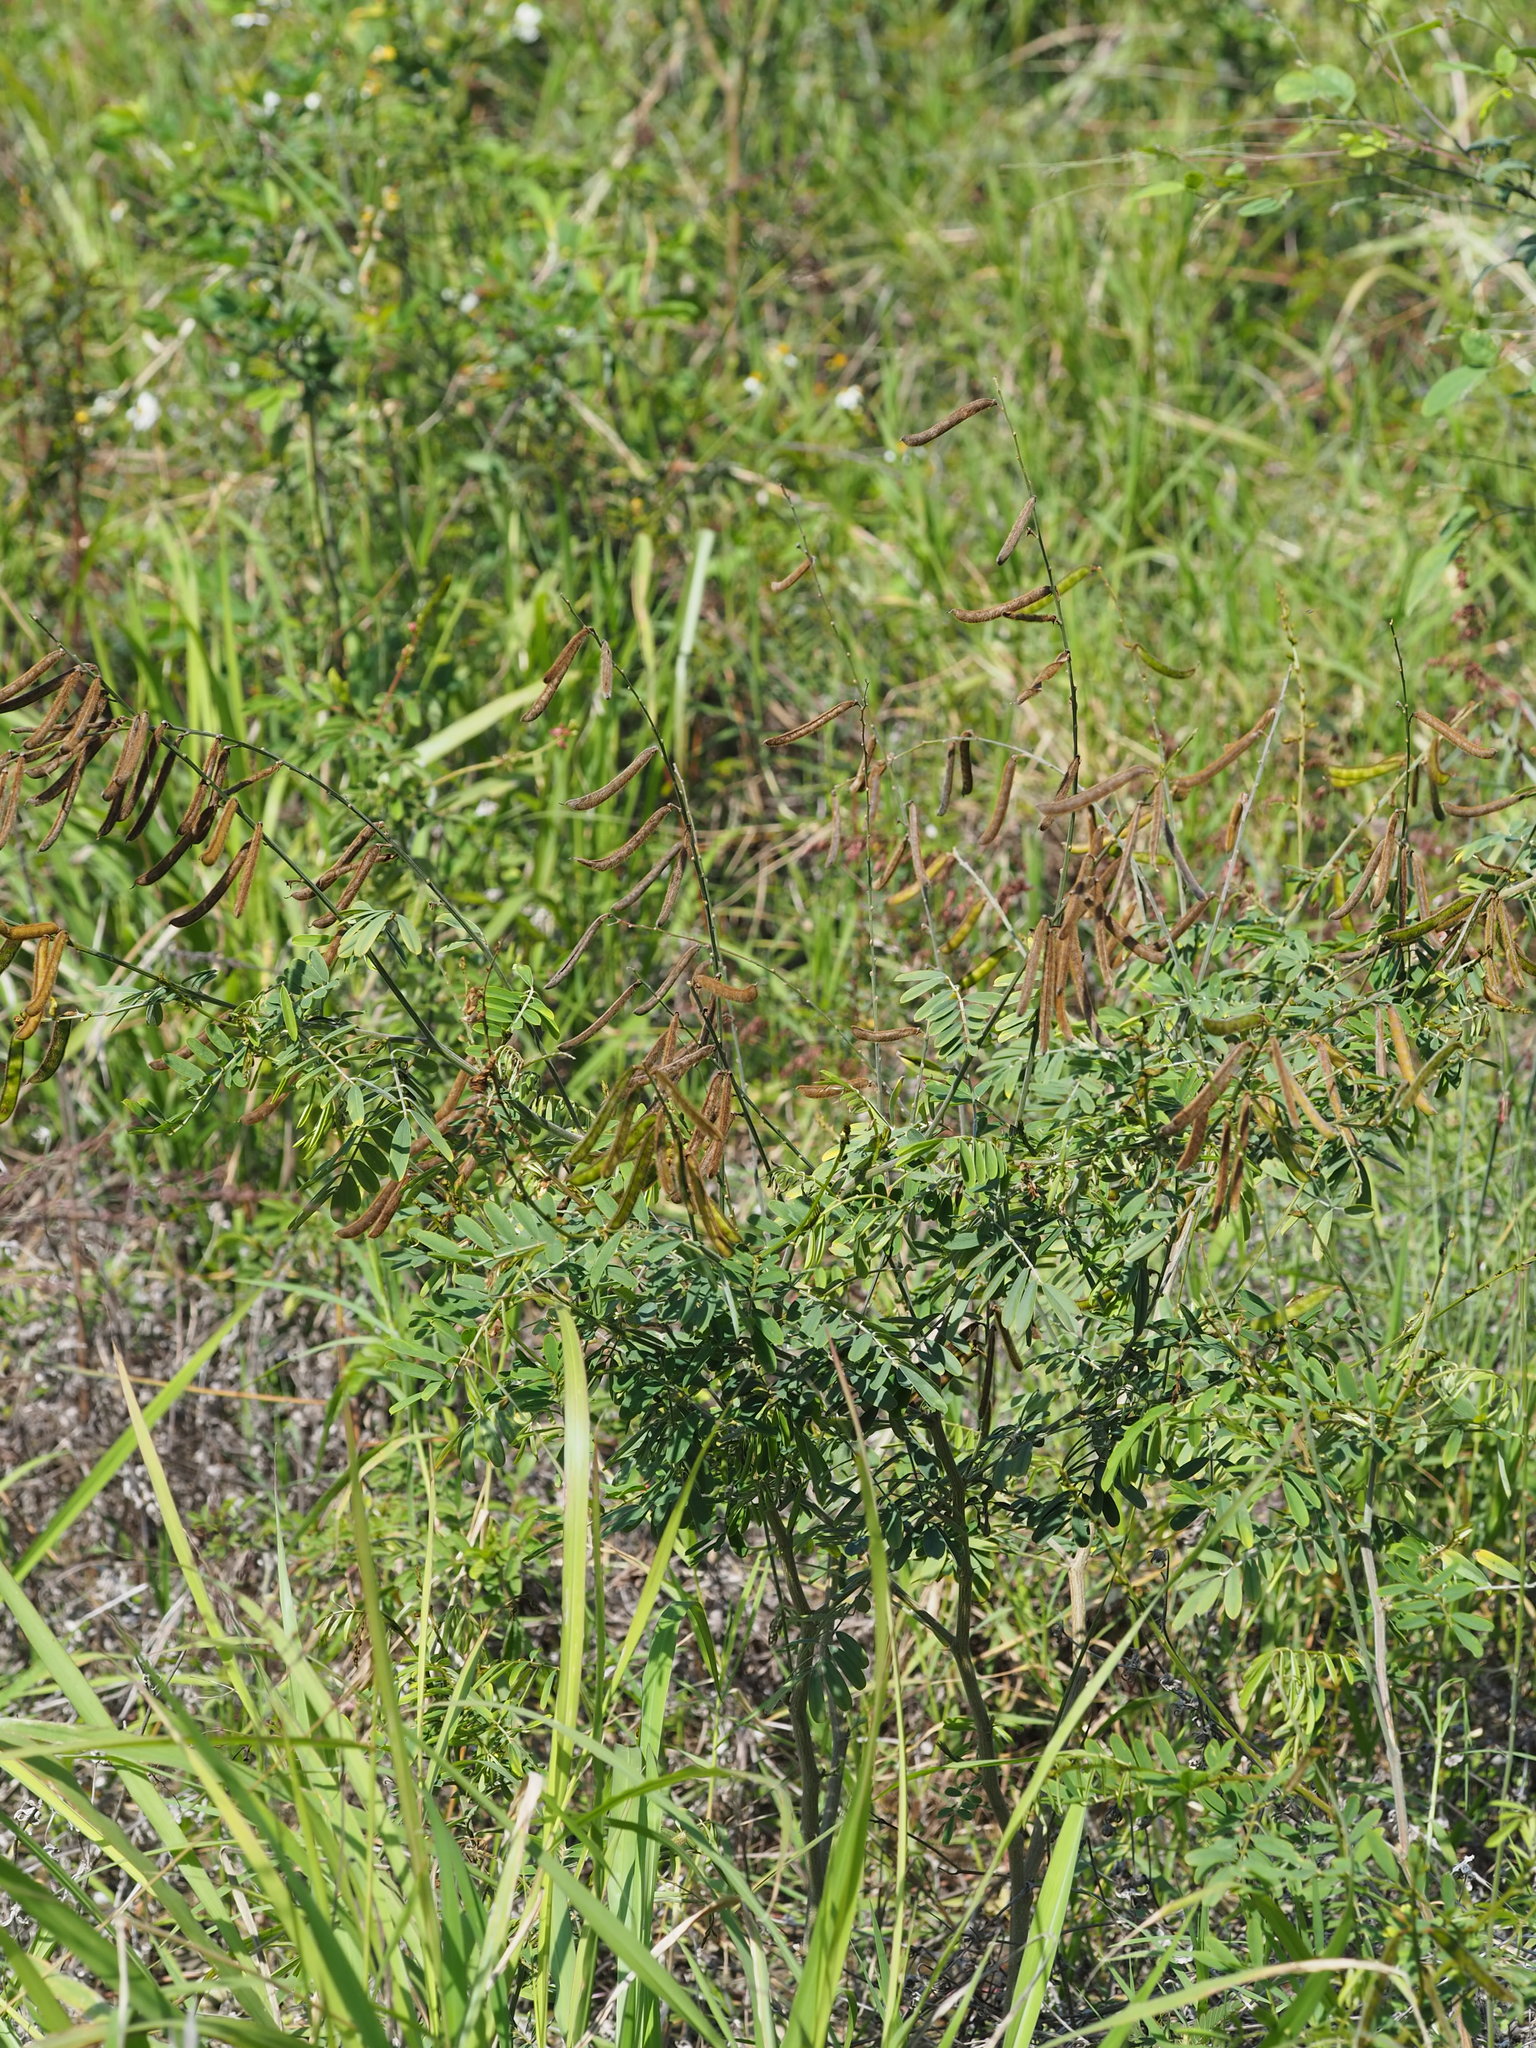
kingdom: Plantae
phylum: Tracheophyta
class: Magnoliopsida
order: Fabales
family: Fabaceae
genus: Tephrosia
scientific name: Tephrosia noctiflora
